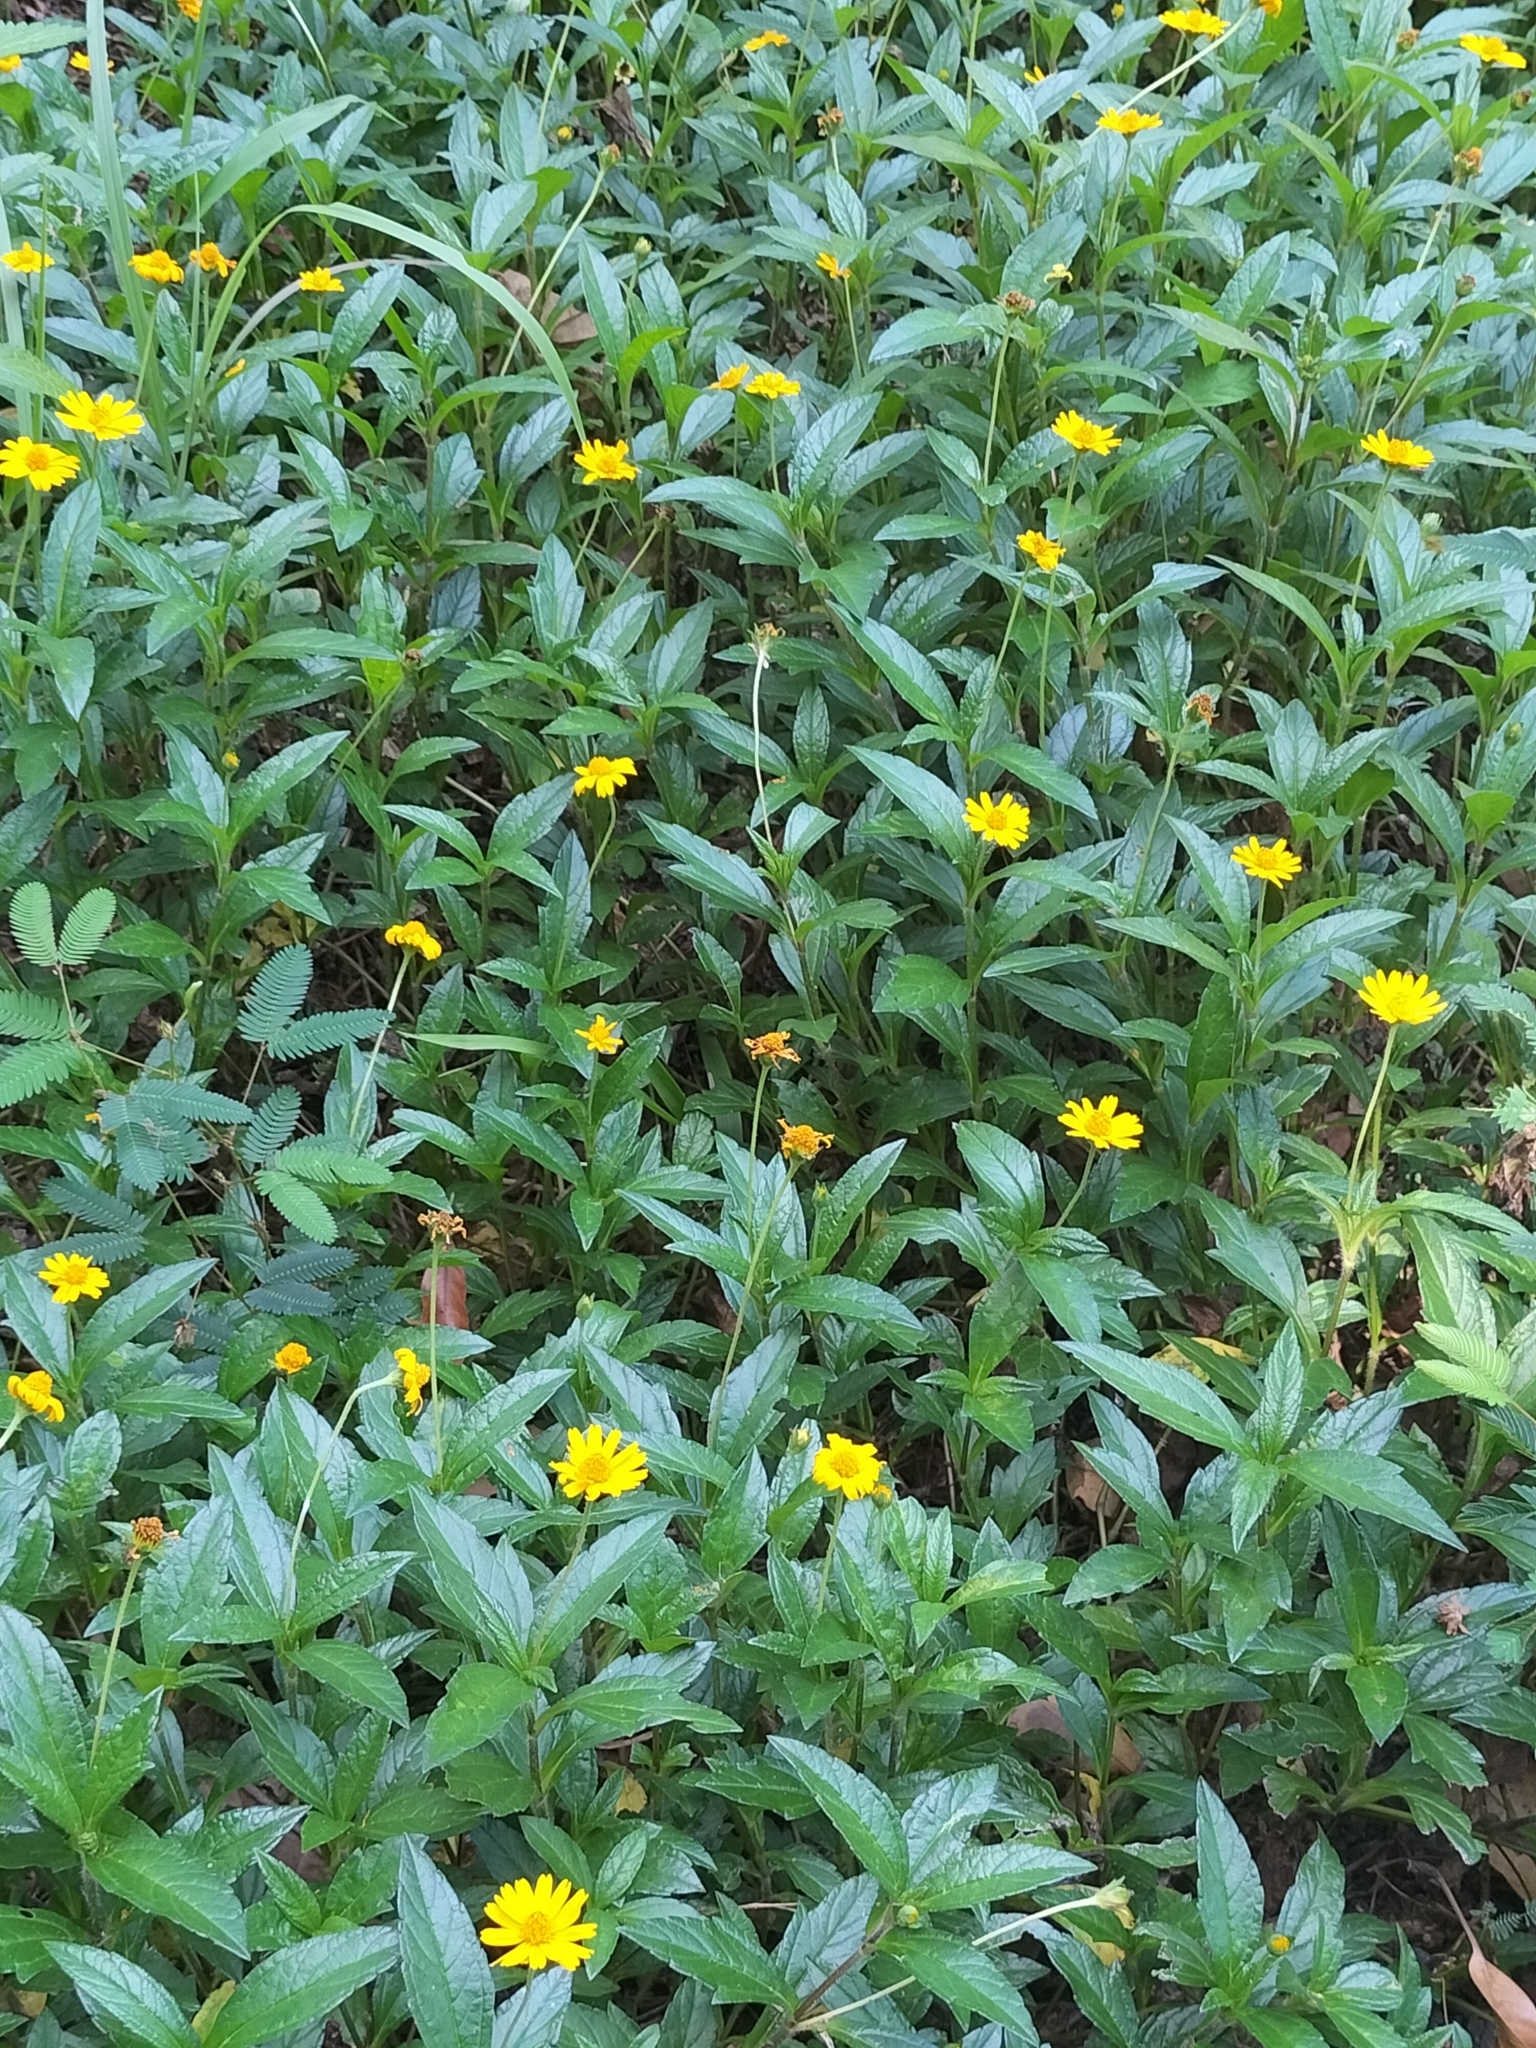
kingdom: Plantae
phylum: Tracheophyta
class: Magnoliopsida
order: Asterales
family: Asteraceae
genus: Sphagneticola
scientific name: Sphagneticola trilobata
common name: Bay biscayne creeping-oxeye
